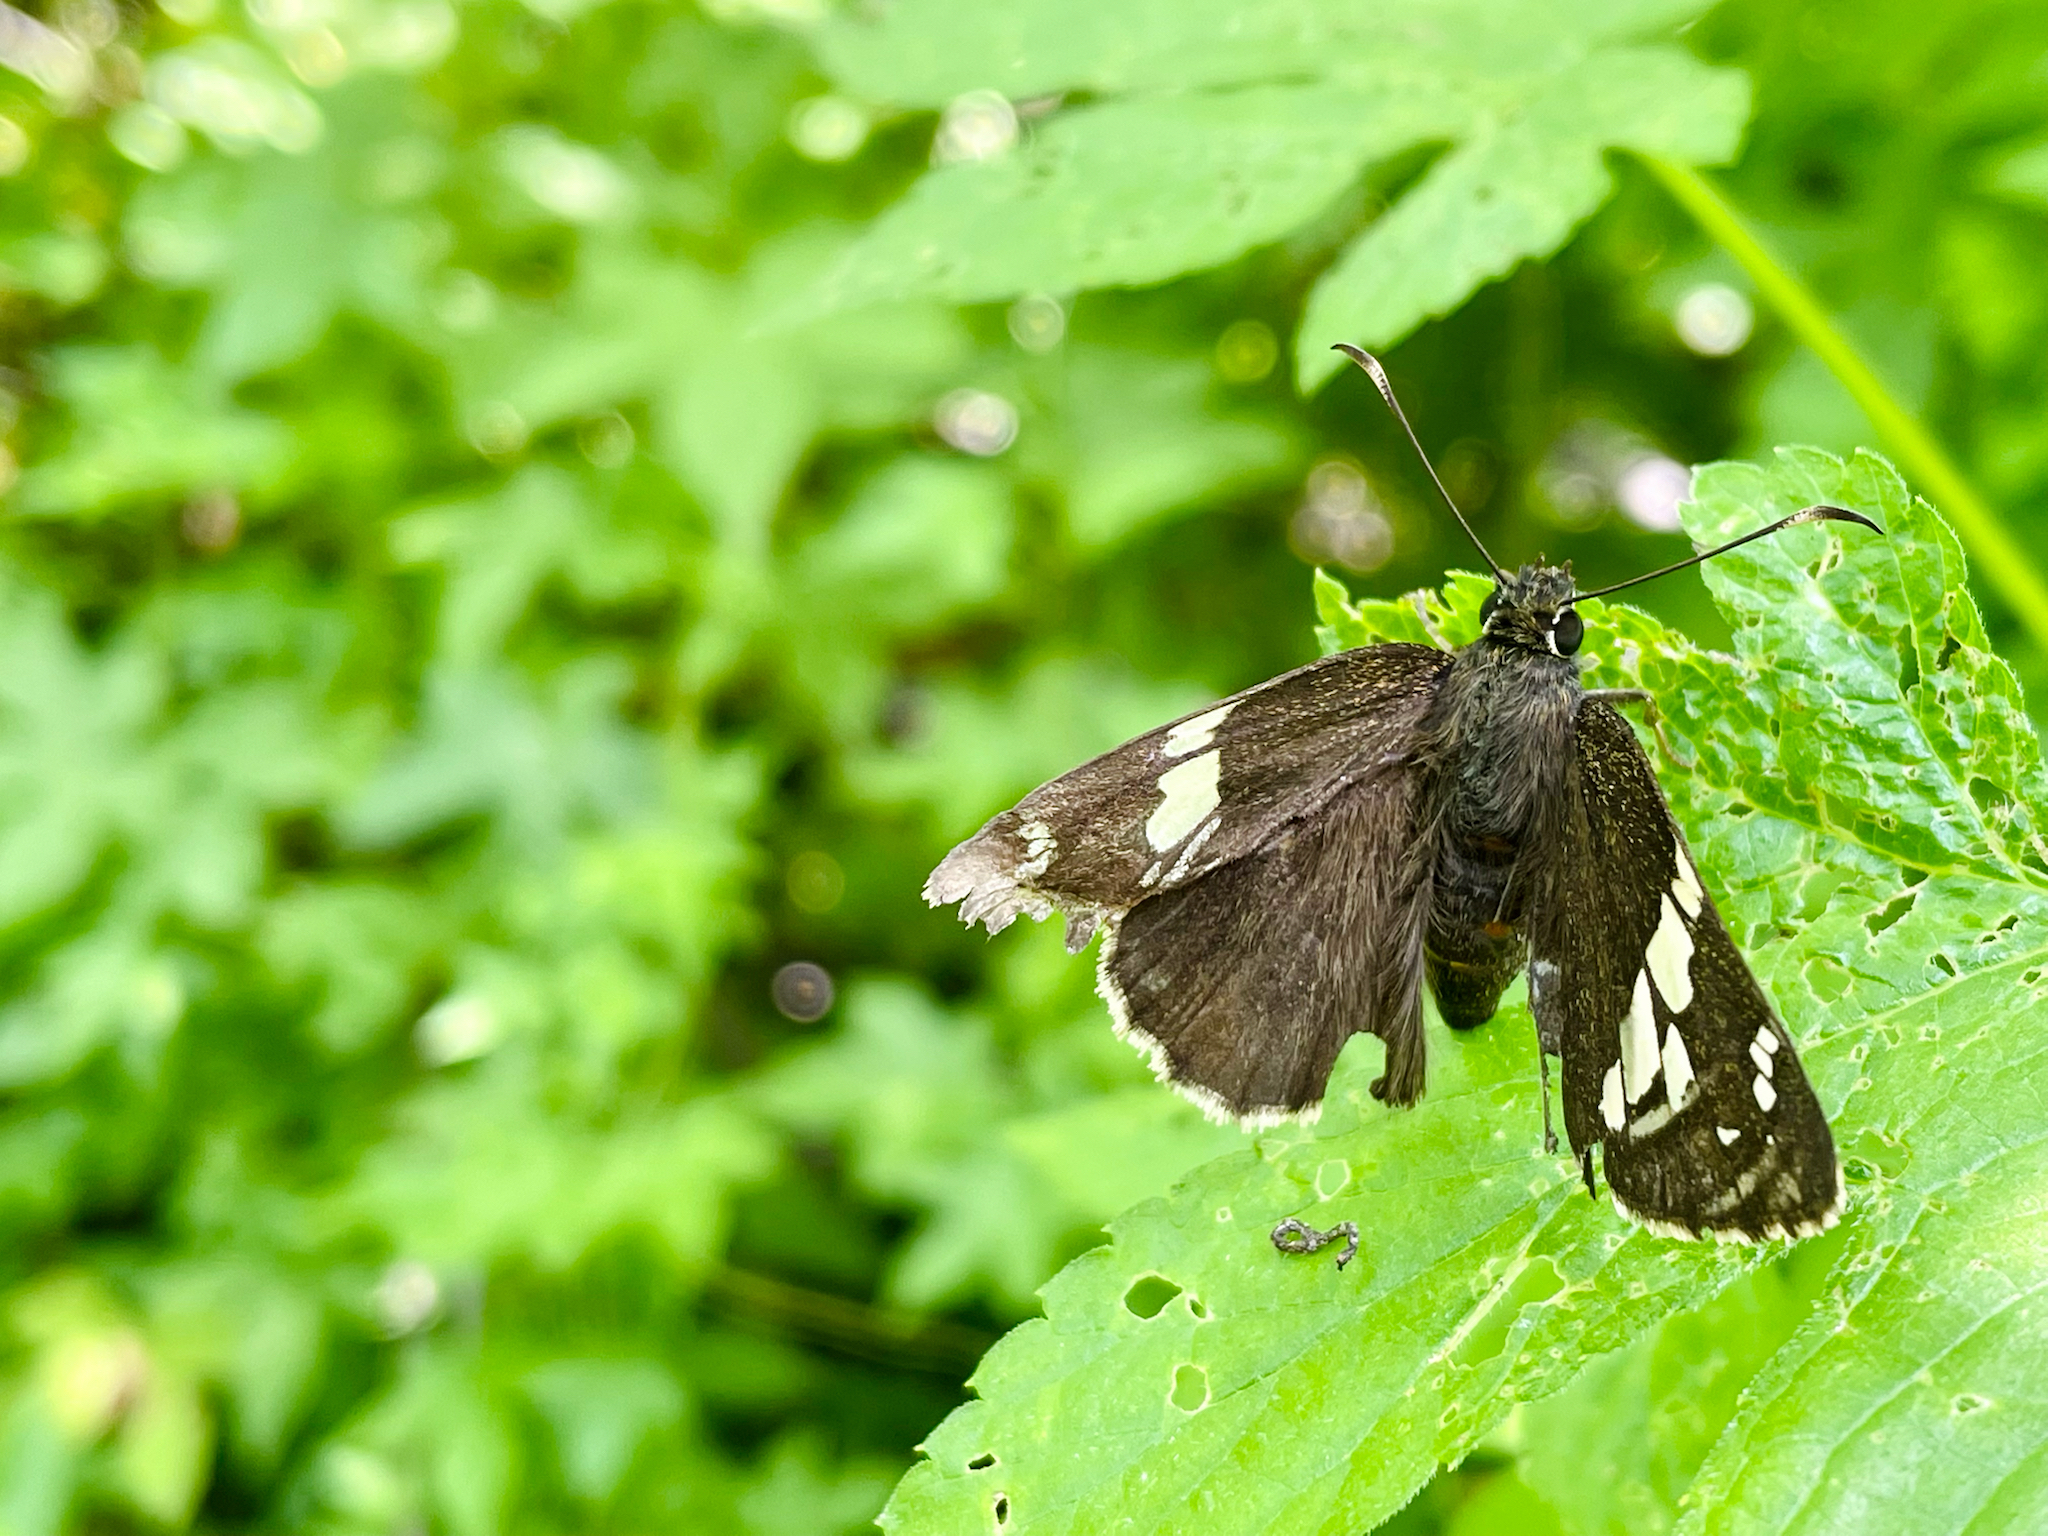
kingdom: Animalia
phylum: Arthropoda
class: Insecta
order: Lepidoptera
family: Hesperiidae
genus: Lobocla
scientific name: Lobocla bifasciatus
